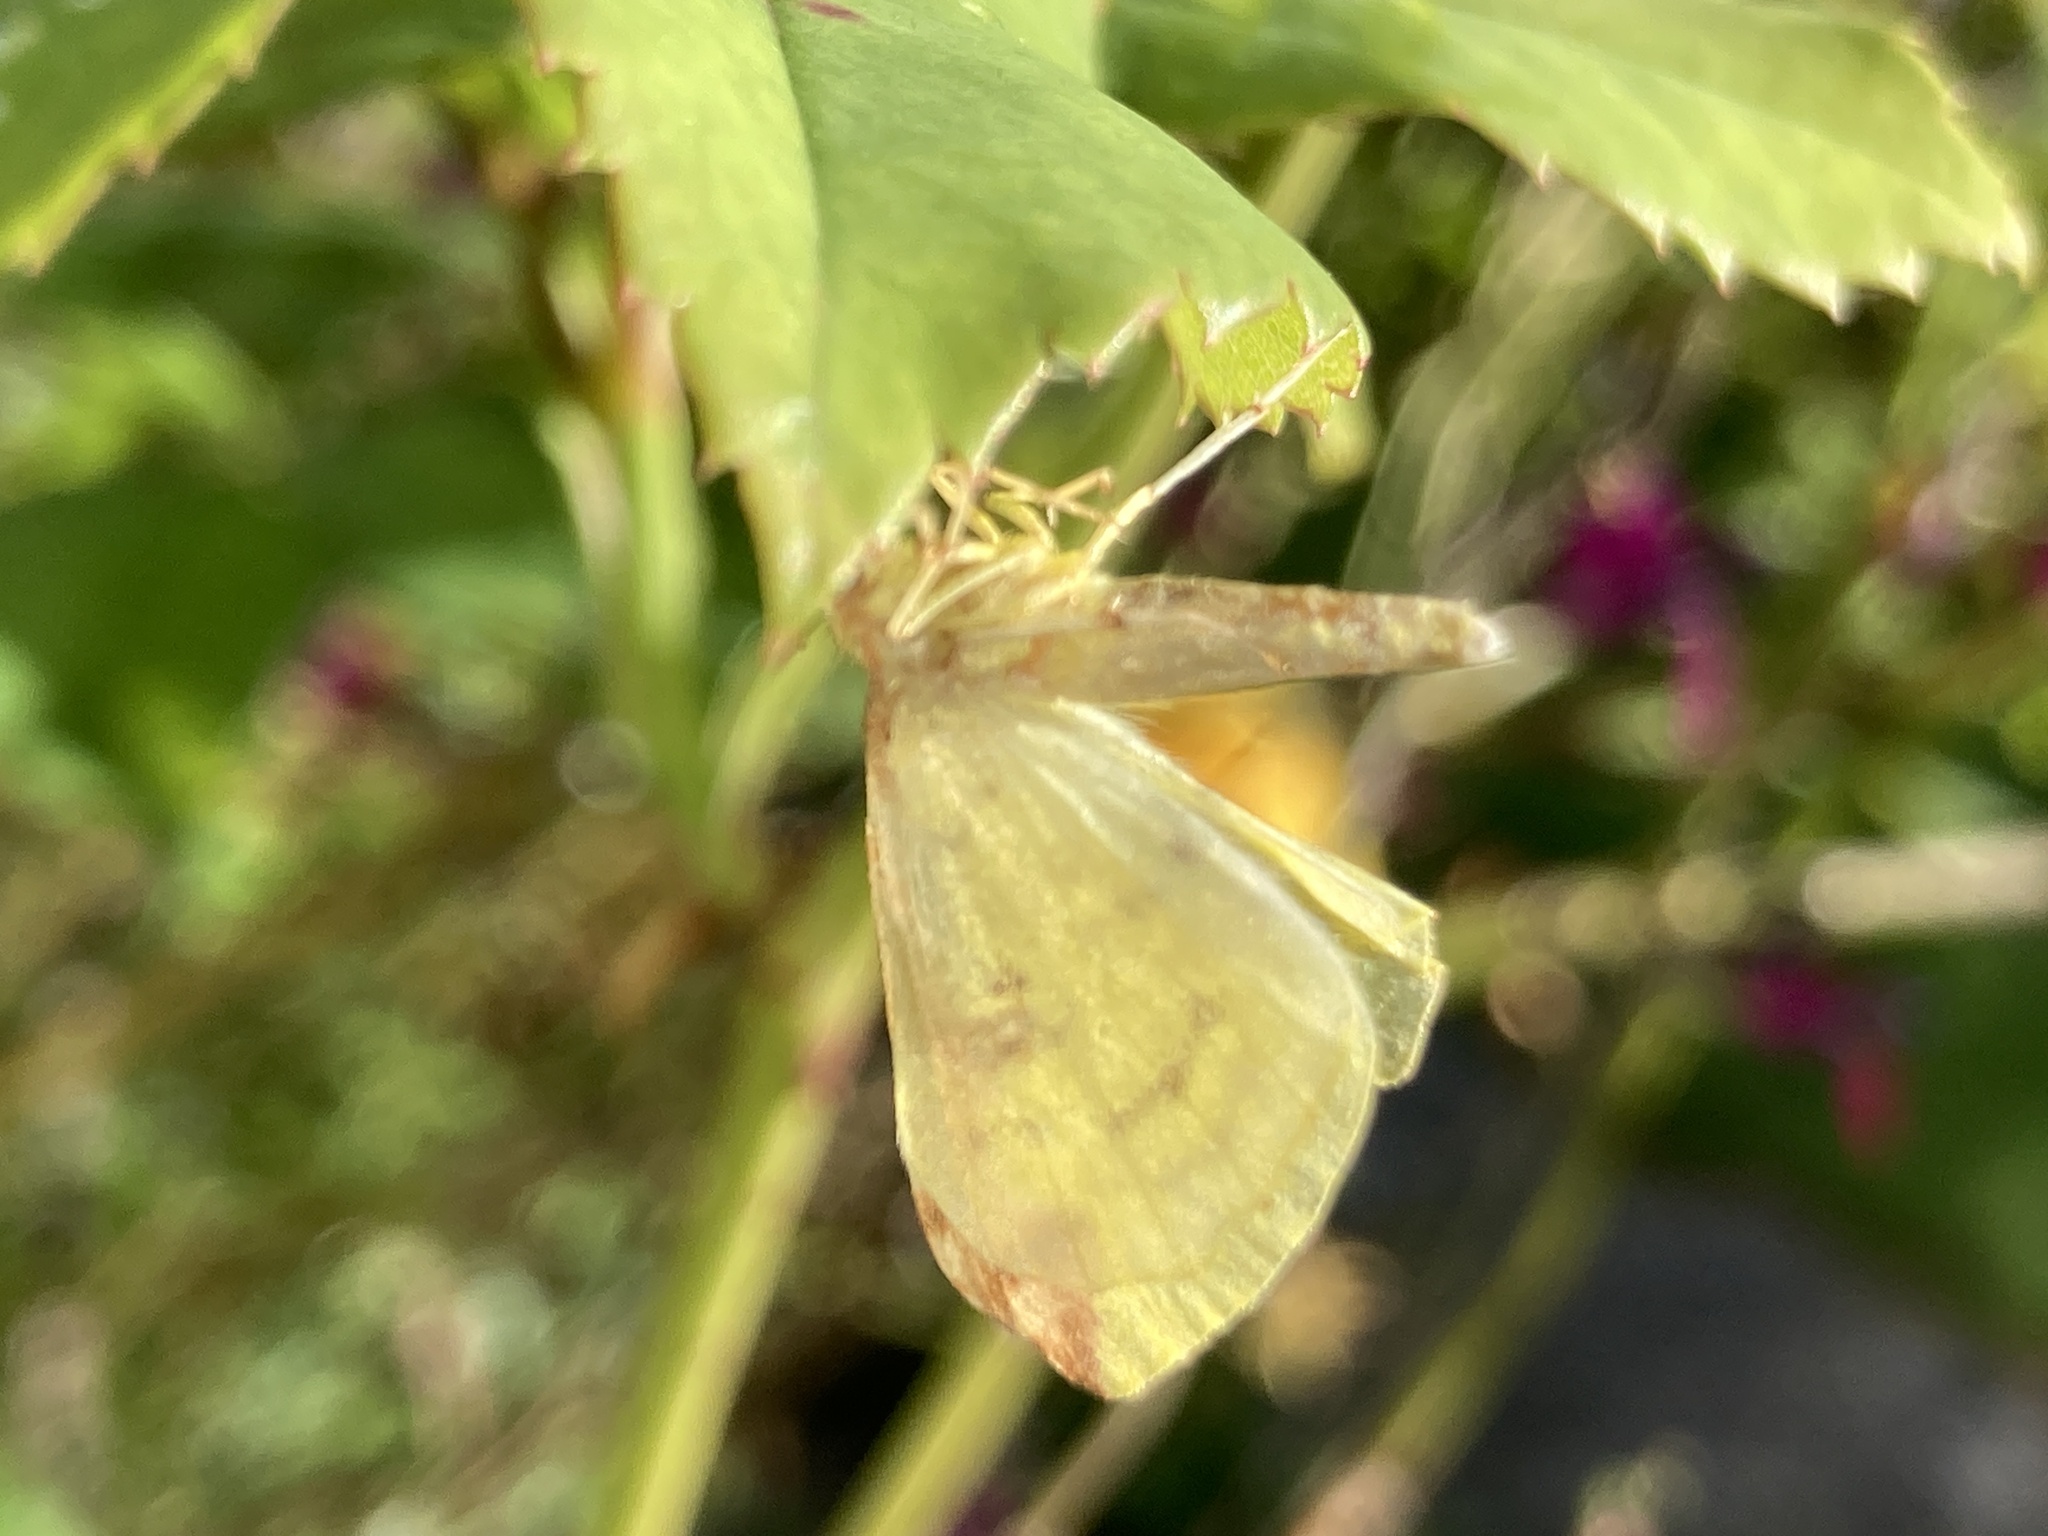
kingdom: Animalia
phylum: Arthropoda
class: Insecta
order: Lepidoptera
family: Geometridae
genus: Opisthograptis
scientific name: Opisthograptis luteolata
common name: Brimstone moth
